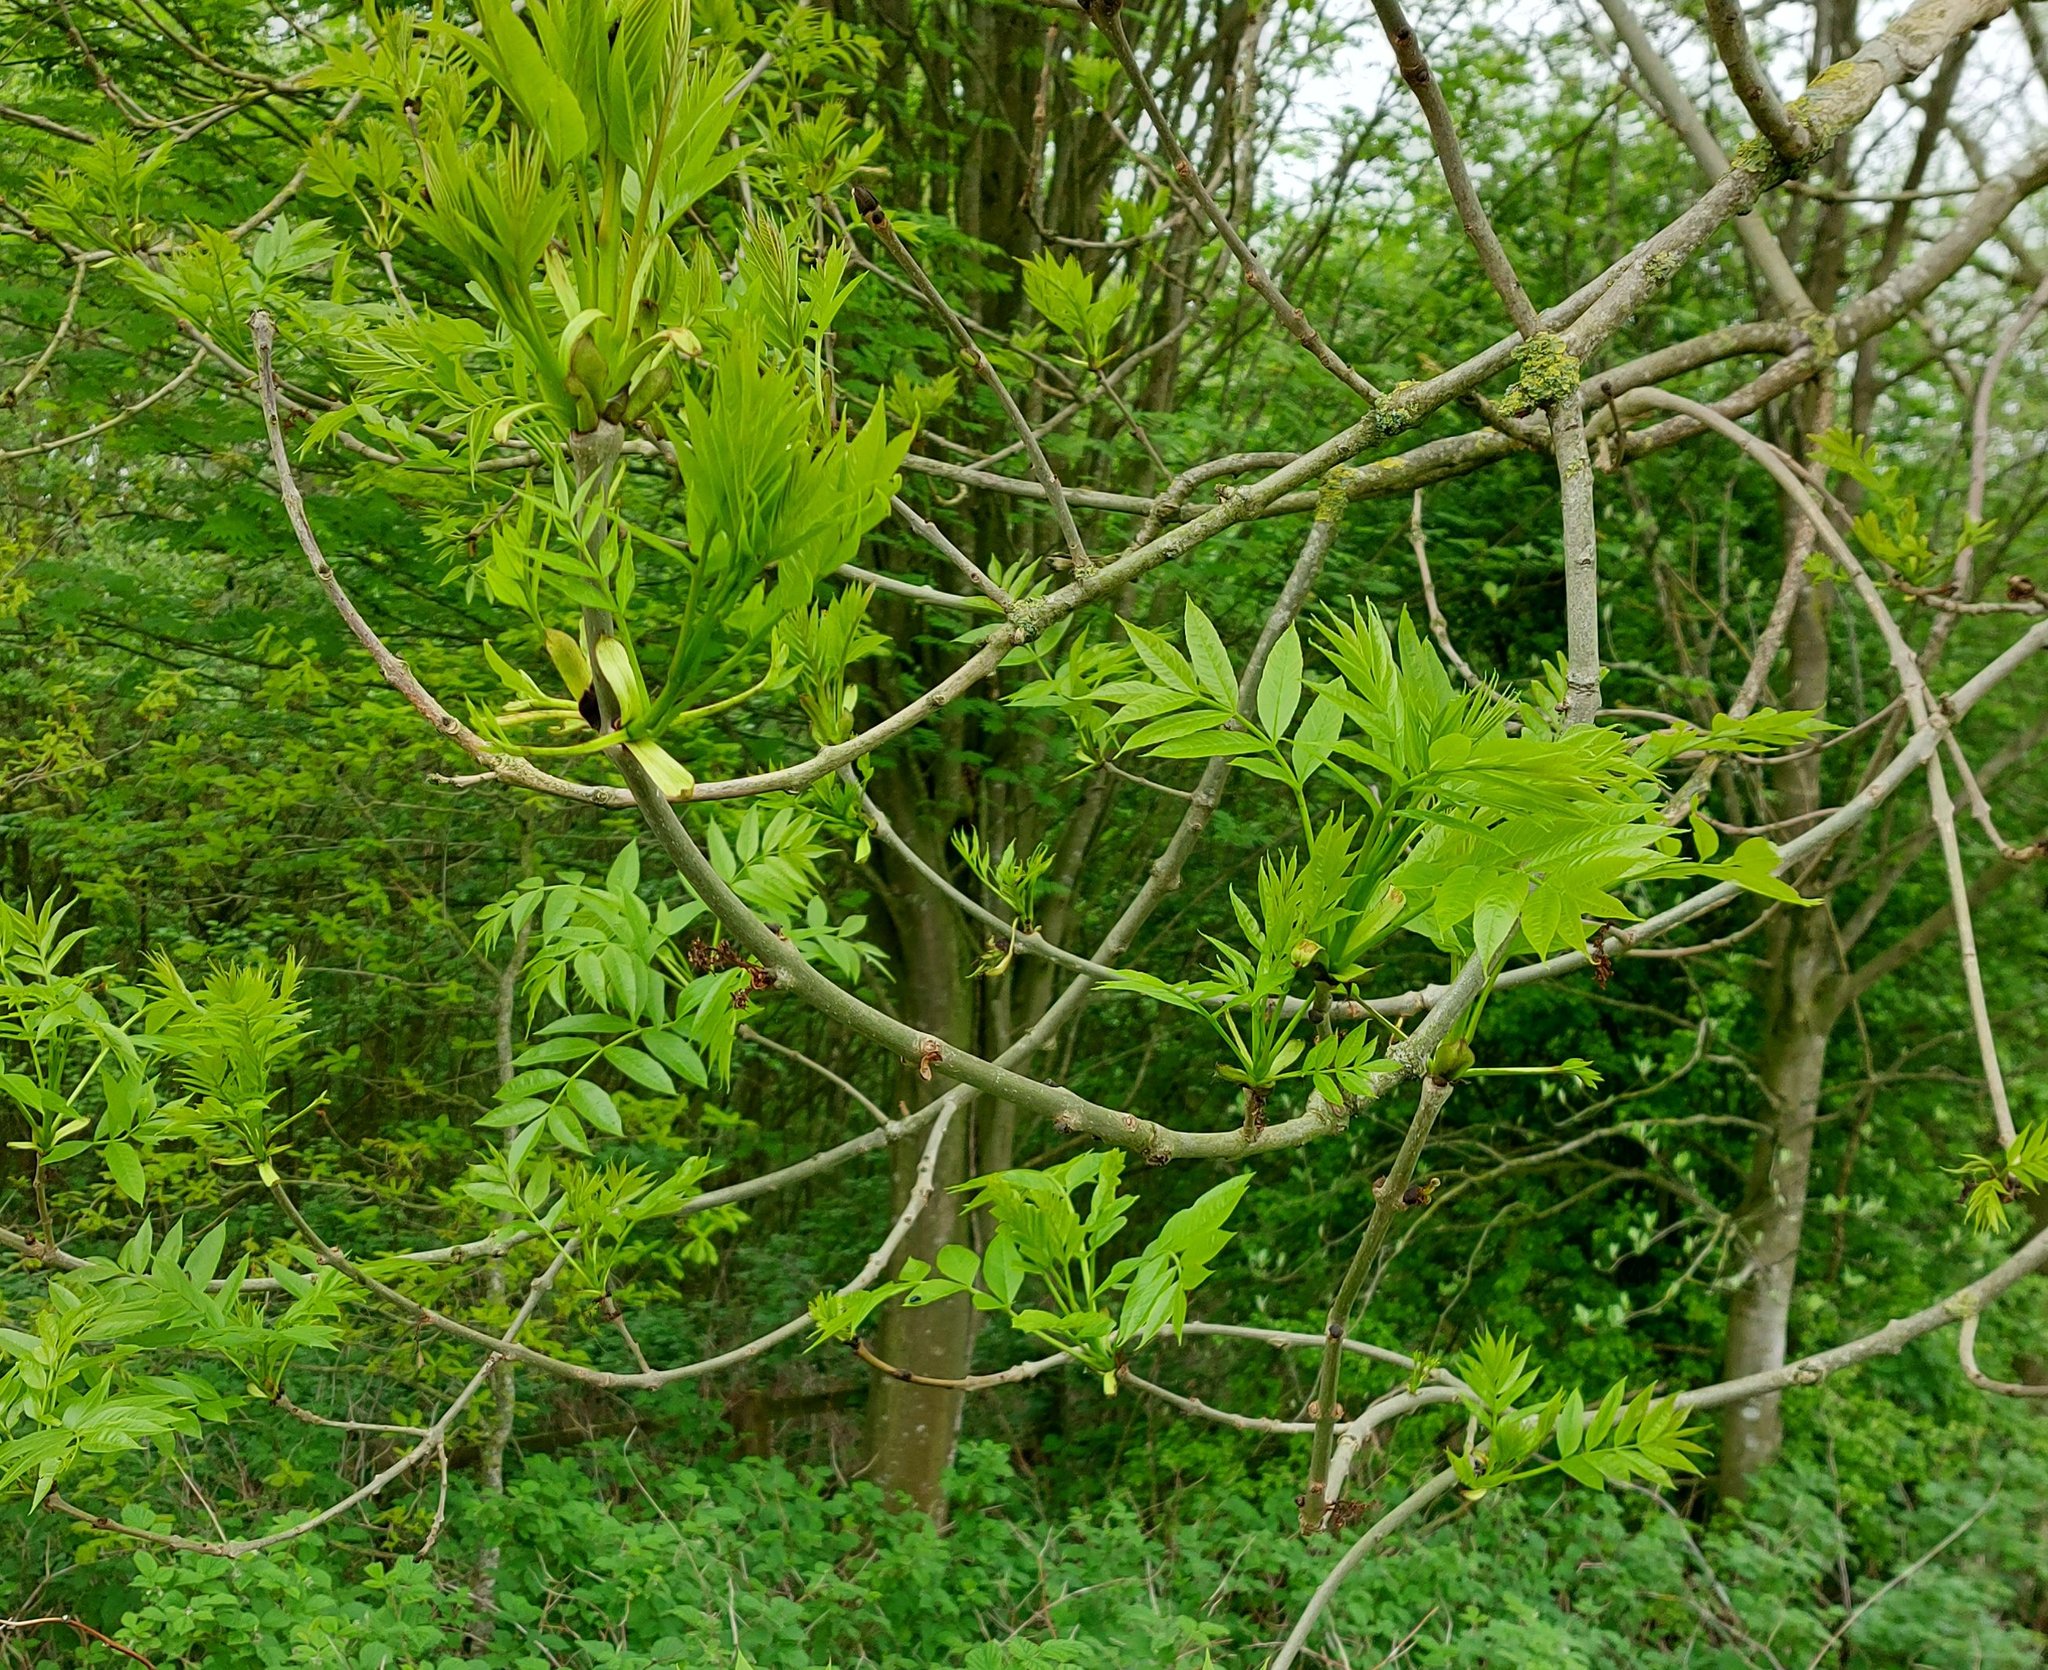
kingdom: Plantae
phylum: Tracheophyta
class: Magnoliopsida
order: Lamiales
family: Oleaceae
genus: Fraxinus
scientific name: Fraxinus excelsior
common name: European ash
